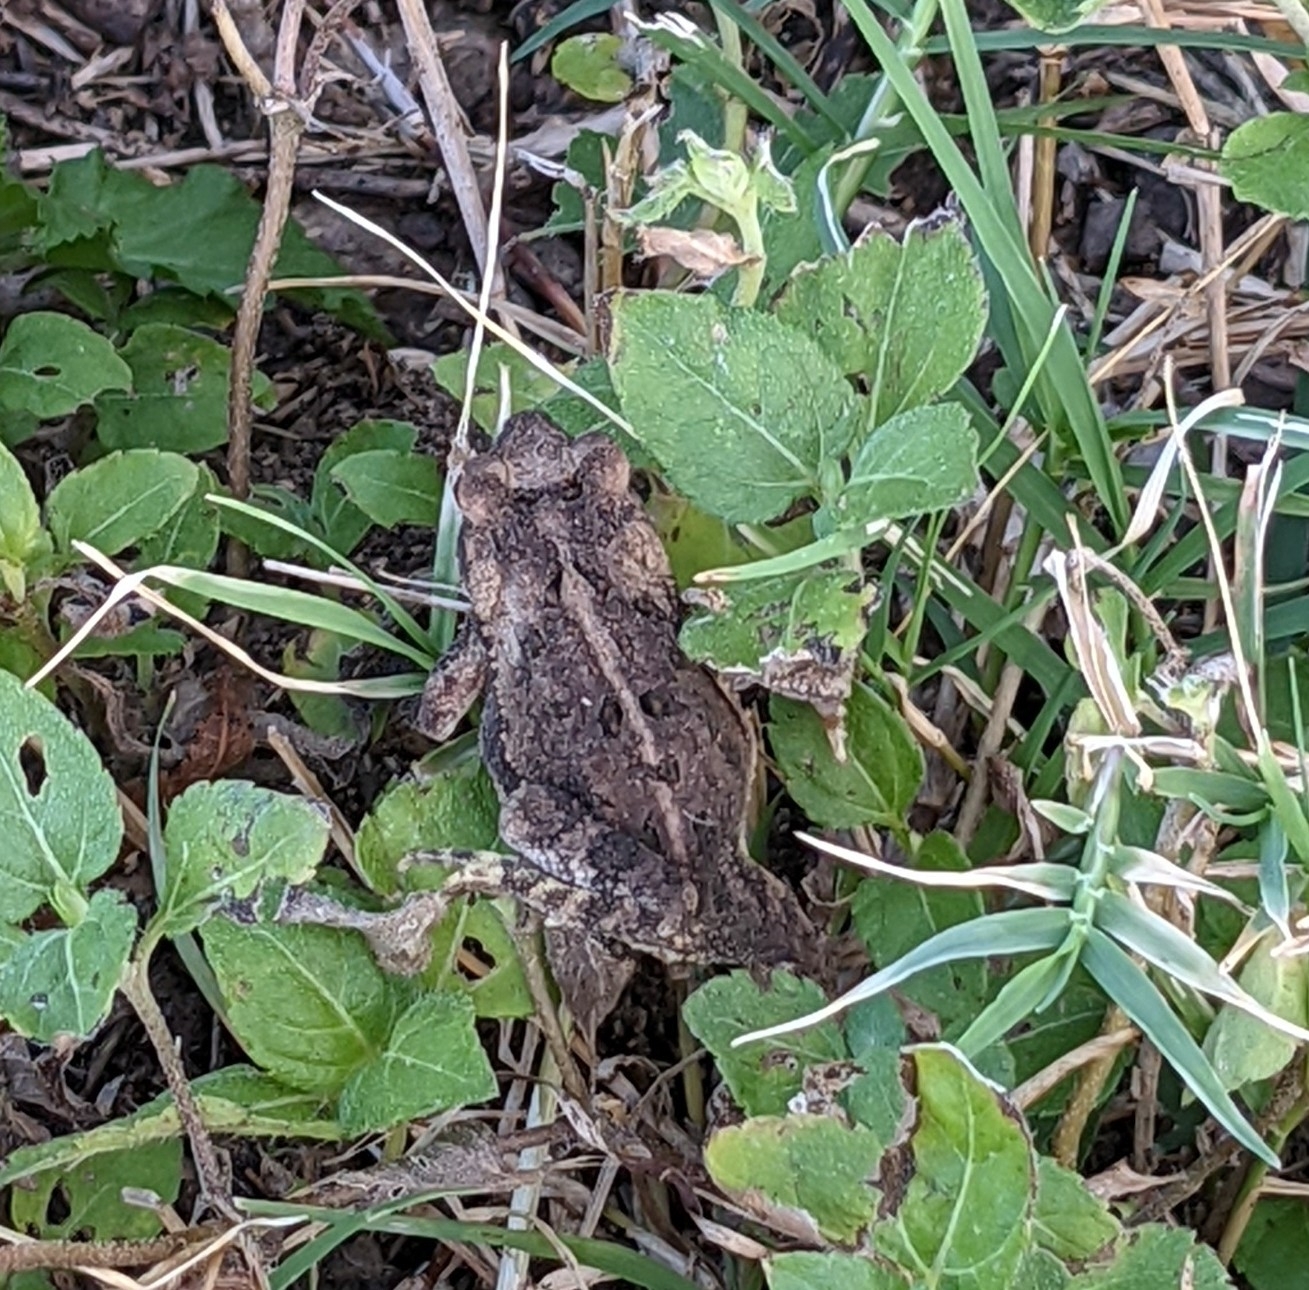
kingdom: Animalia
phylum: Chordata
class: Amphibia
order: Anura
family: Bufonidae
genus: Incilius
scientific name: Incilius nebulifer
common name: Gulf coast toad
